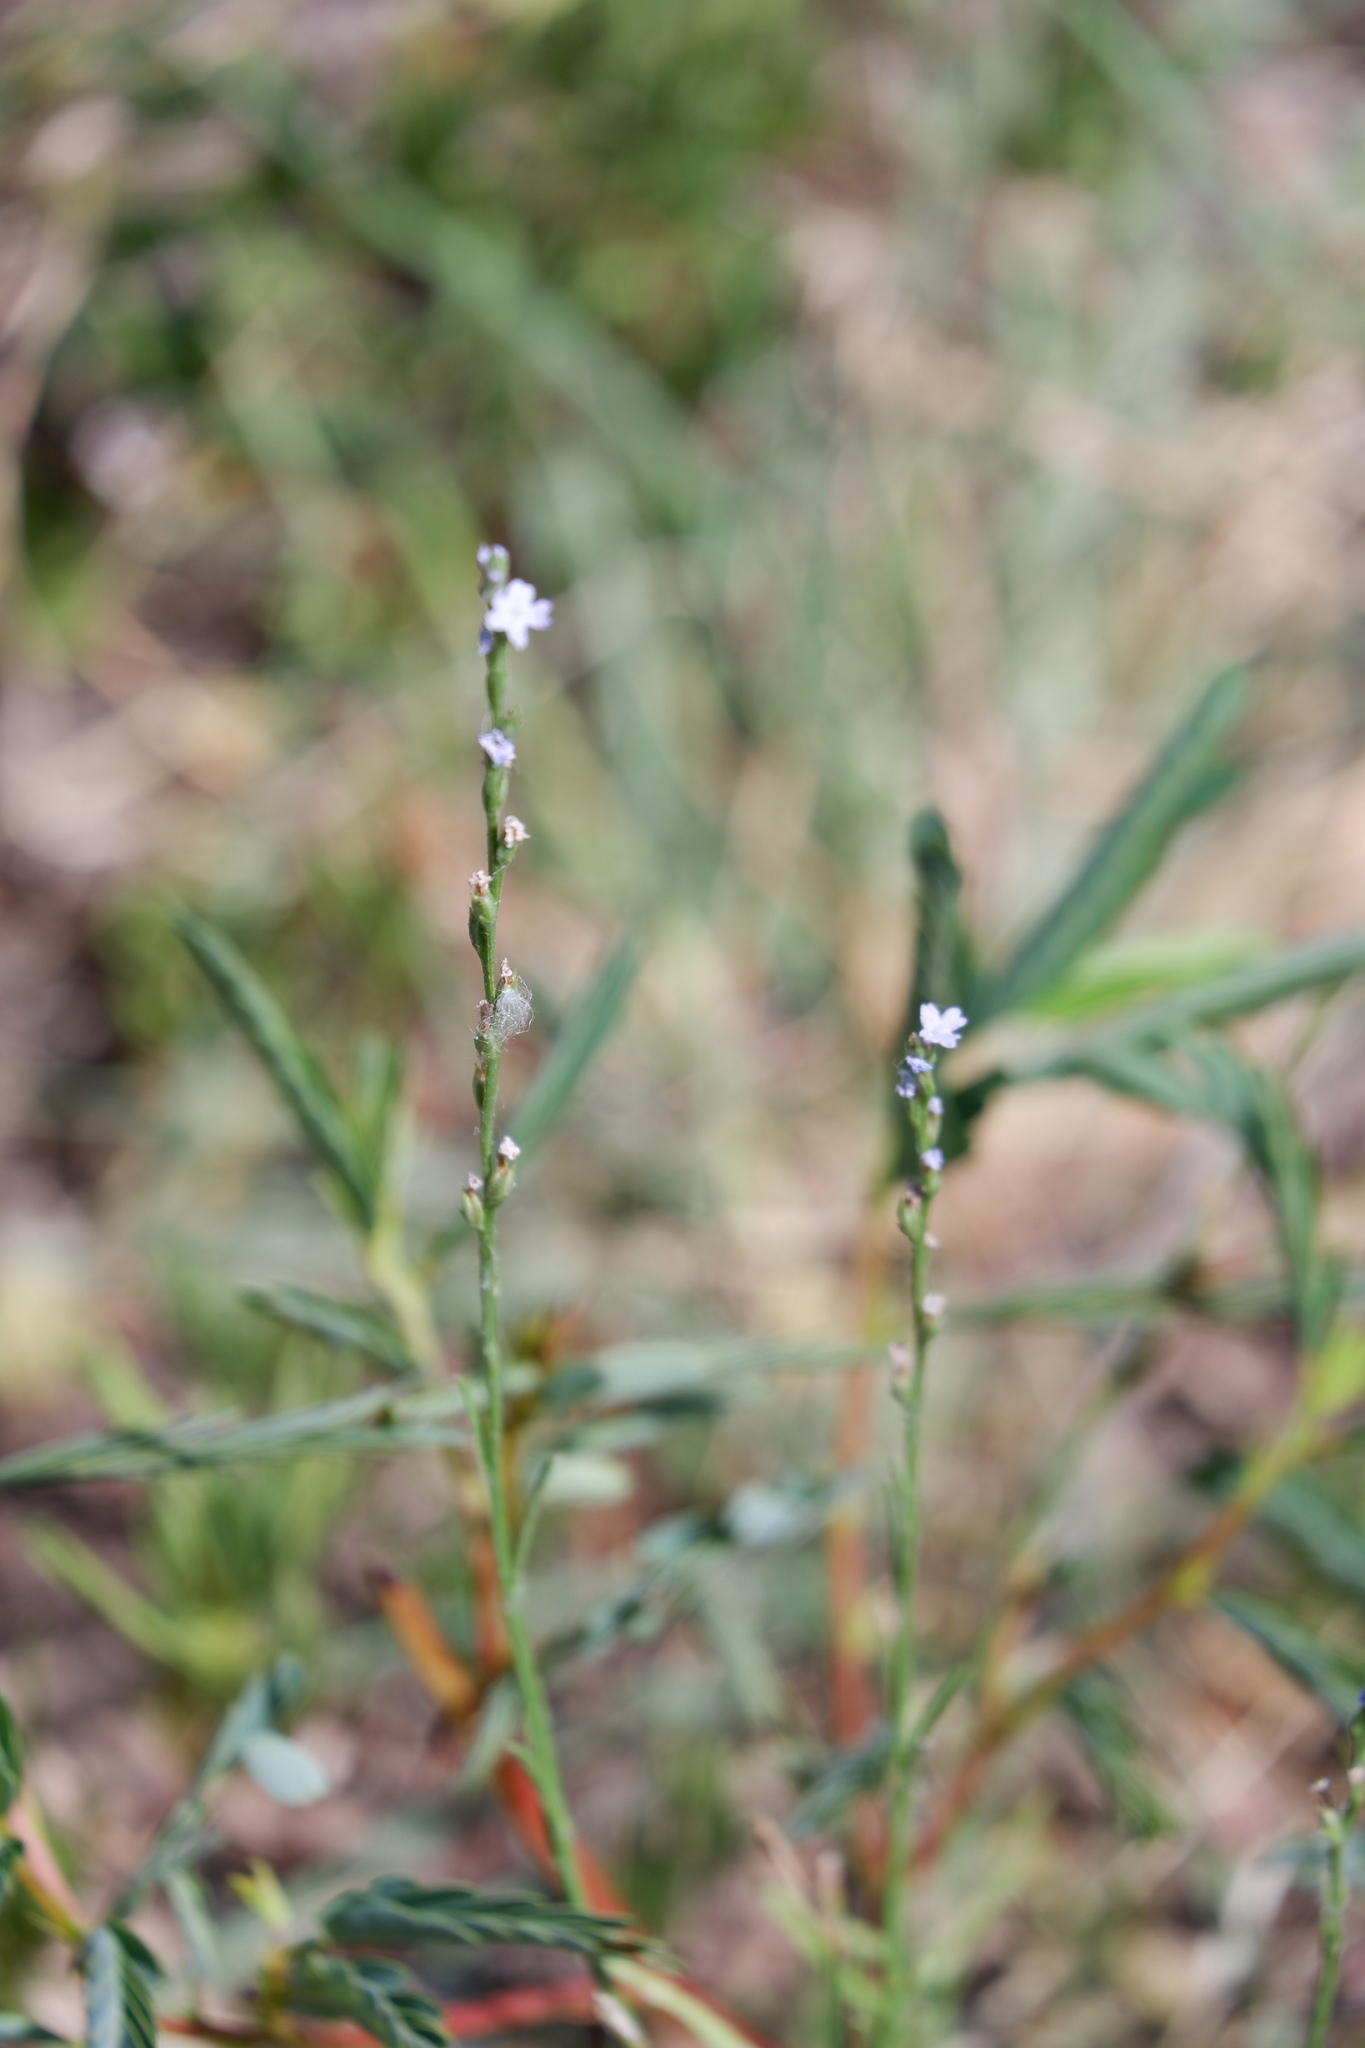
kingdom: Plantae
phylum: Tracheophyta
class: Magnoliopsida
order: Lamiales
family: Verbenaceae
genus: Verbena
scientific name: Verbena halei
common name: Texas vervain
